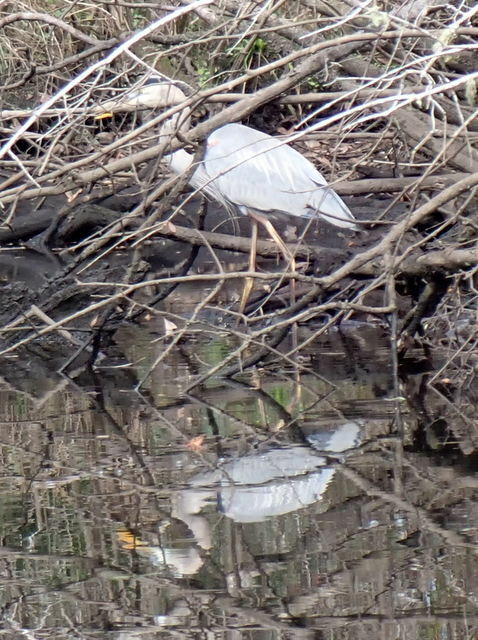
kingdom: Animalia
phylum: Chordata
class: Aves
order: Pelecaniformes
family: Ardeidae
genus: Ardea
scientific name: Ardea herodias
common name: Great blue heron
